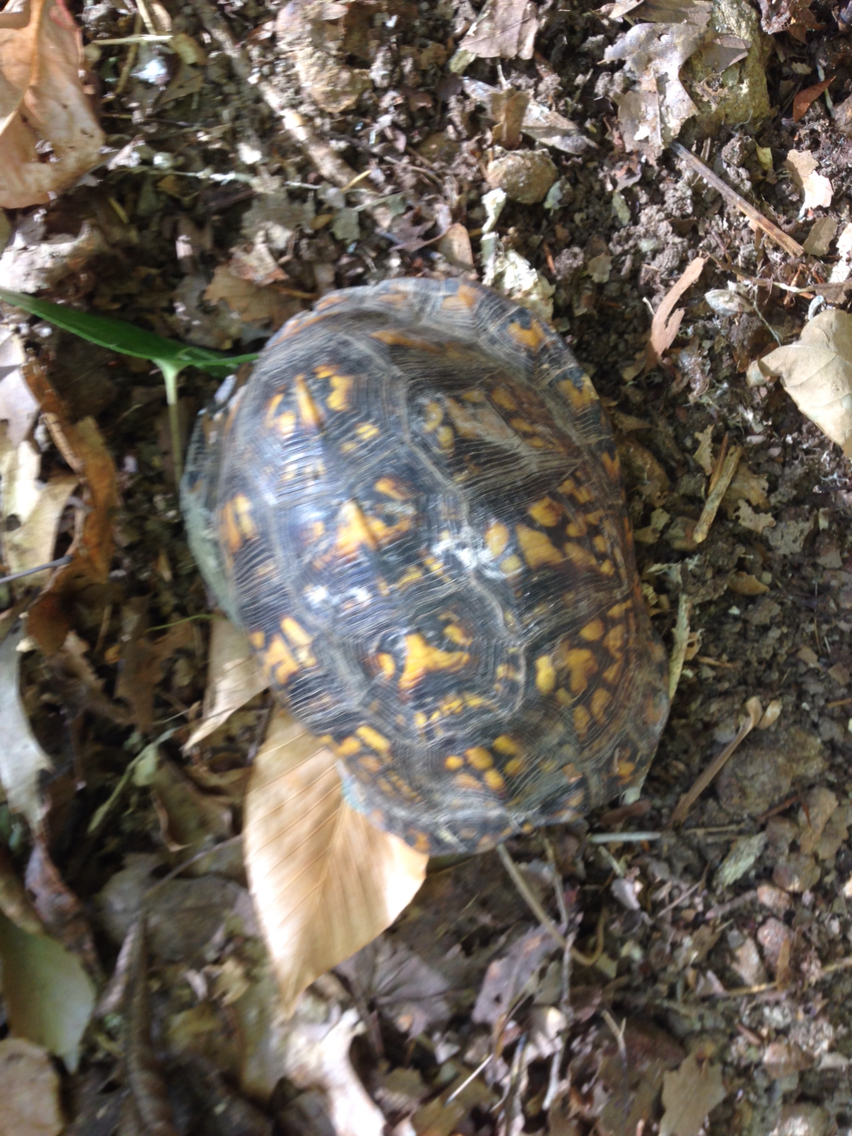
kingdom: Animalia
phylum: Chordata
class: Testudines
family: Emydidae
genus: Terrapene
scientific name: Terrapene carolina
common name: Common box turtle
